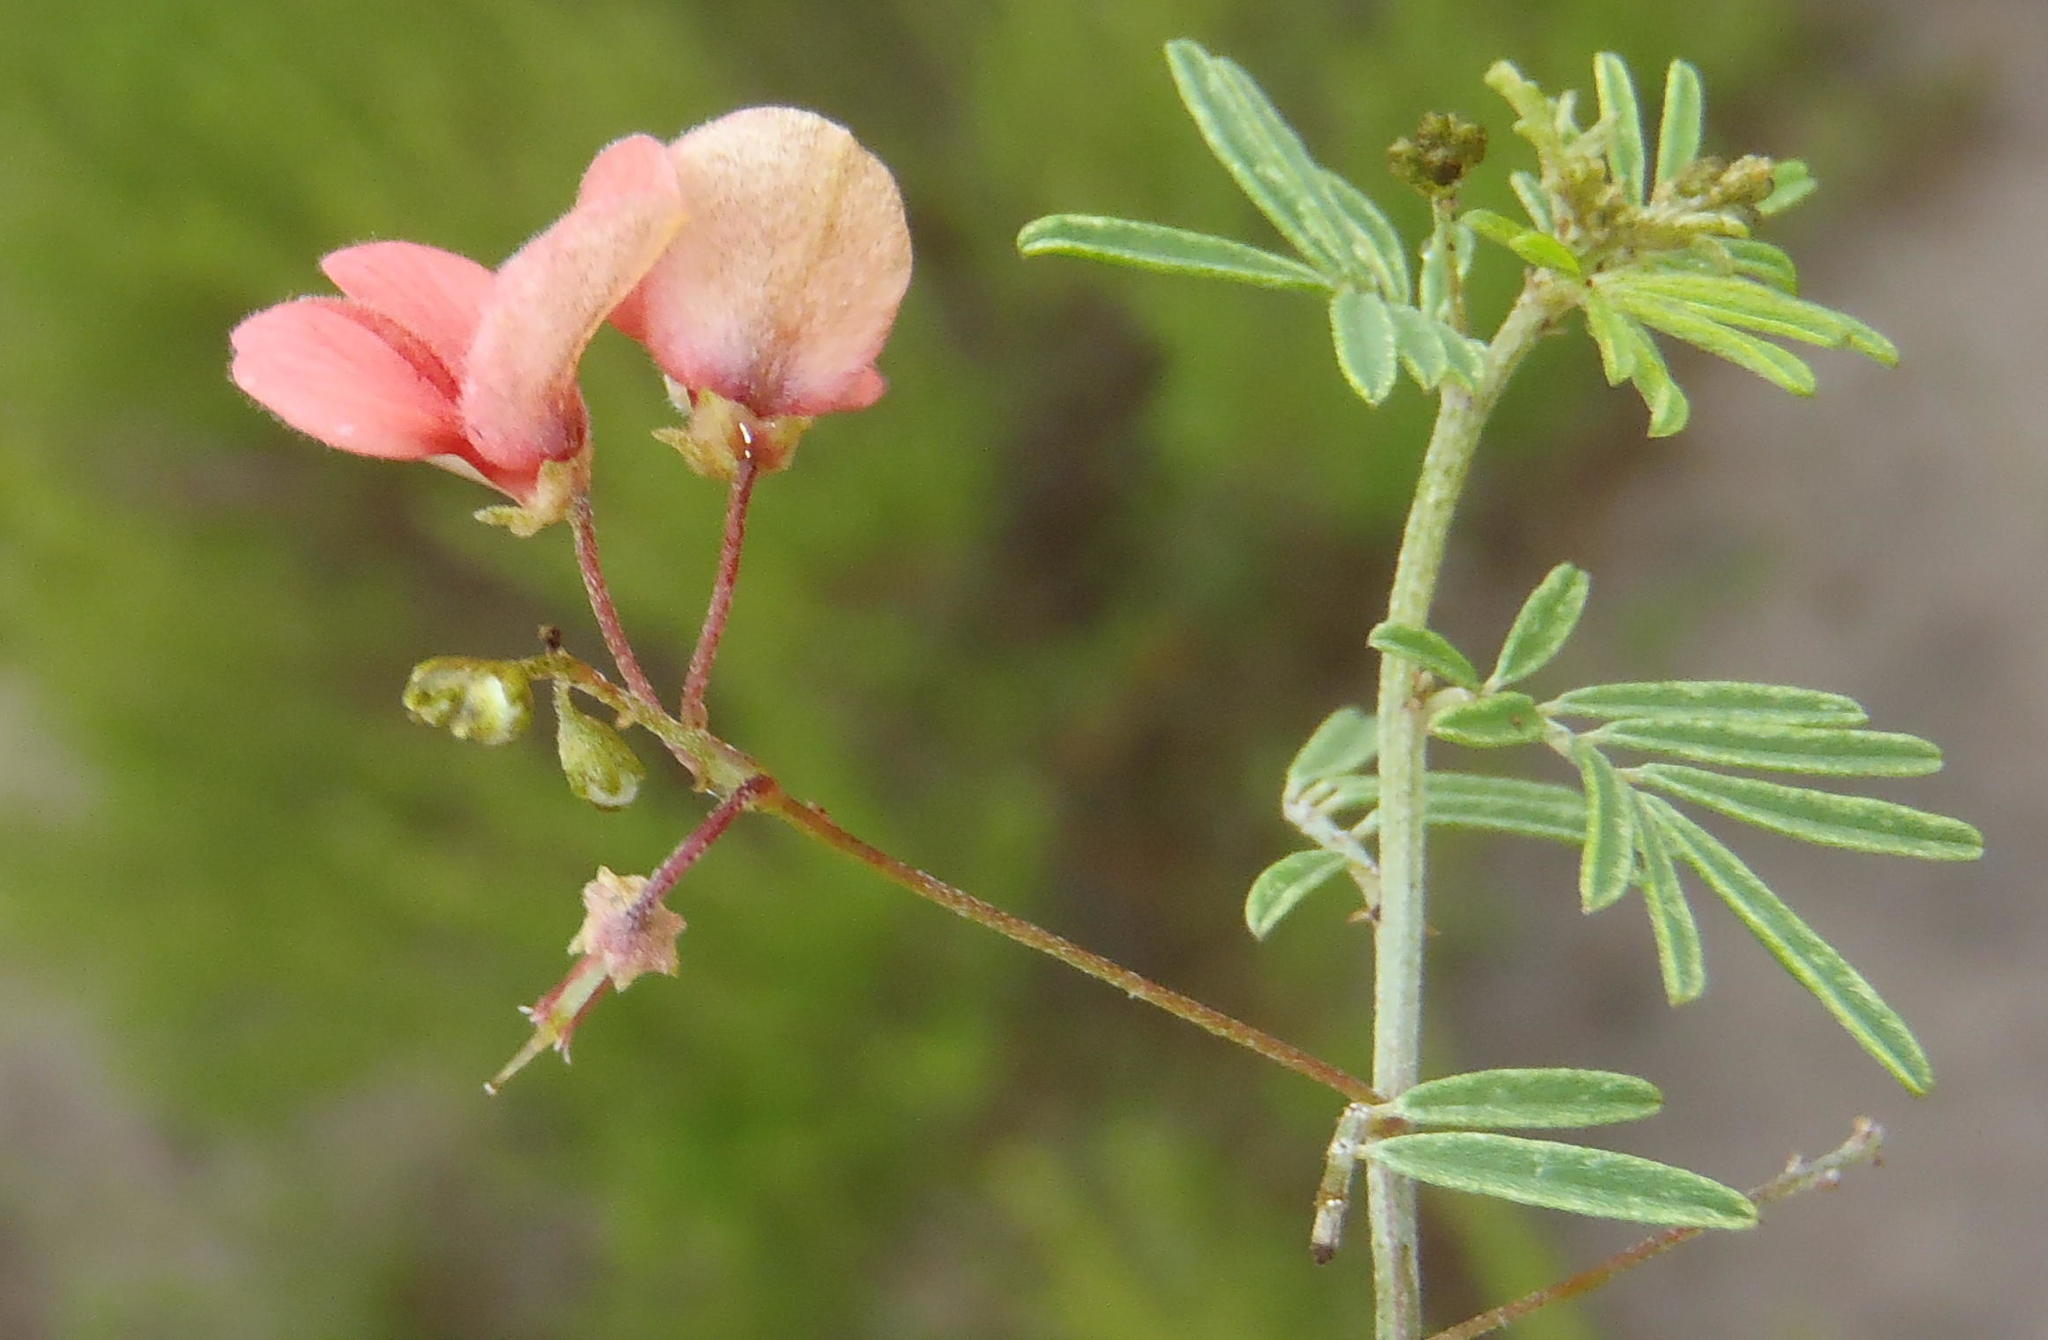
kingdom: Plantae
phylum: Tracheophyta
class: Magnoliopsida
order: Fabales
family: Fabaceae
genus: Indigofera
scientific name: Indigofera verrucosa
